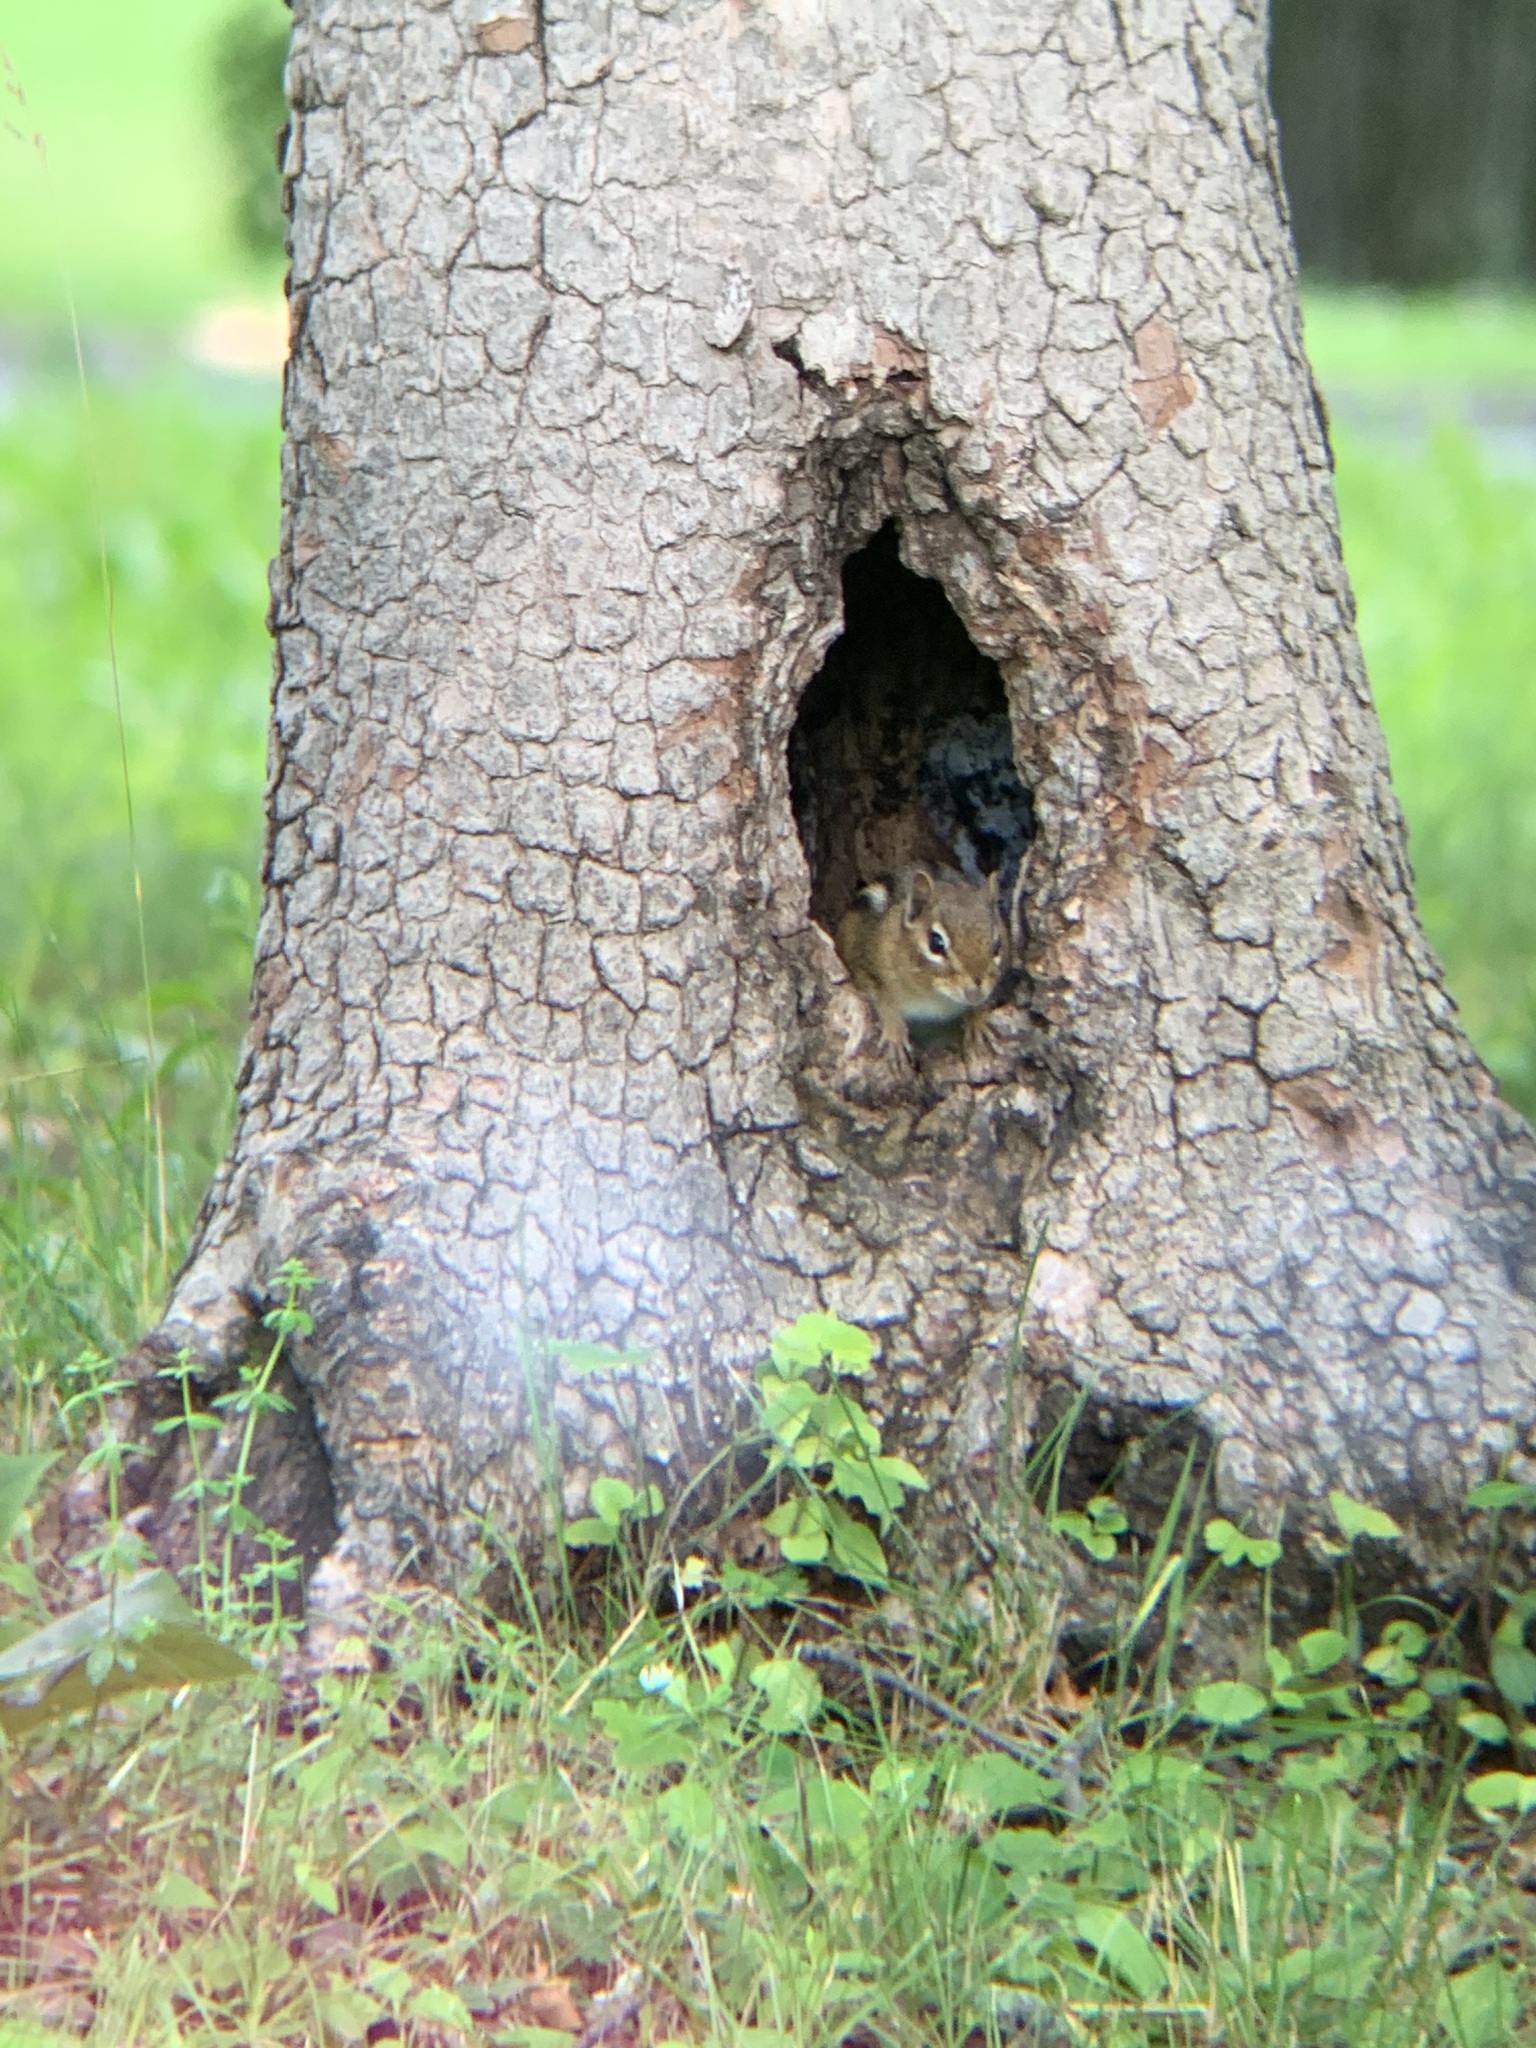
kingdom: Animalia
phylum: Chordata
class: Mammalia
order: Rodentia
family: Sciuridae
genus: Tamias
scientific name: Tamias striatus
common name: Eastern chipmunk
